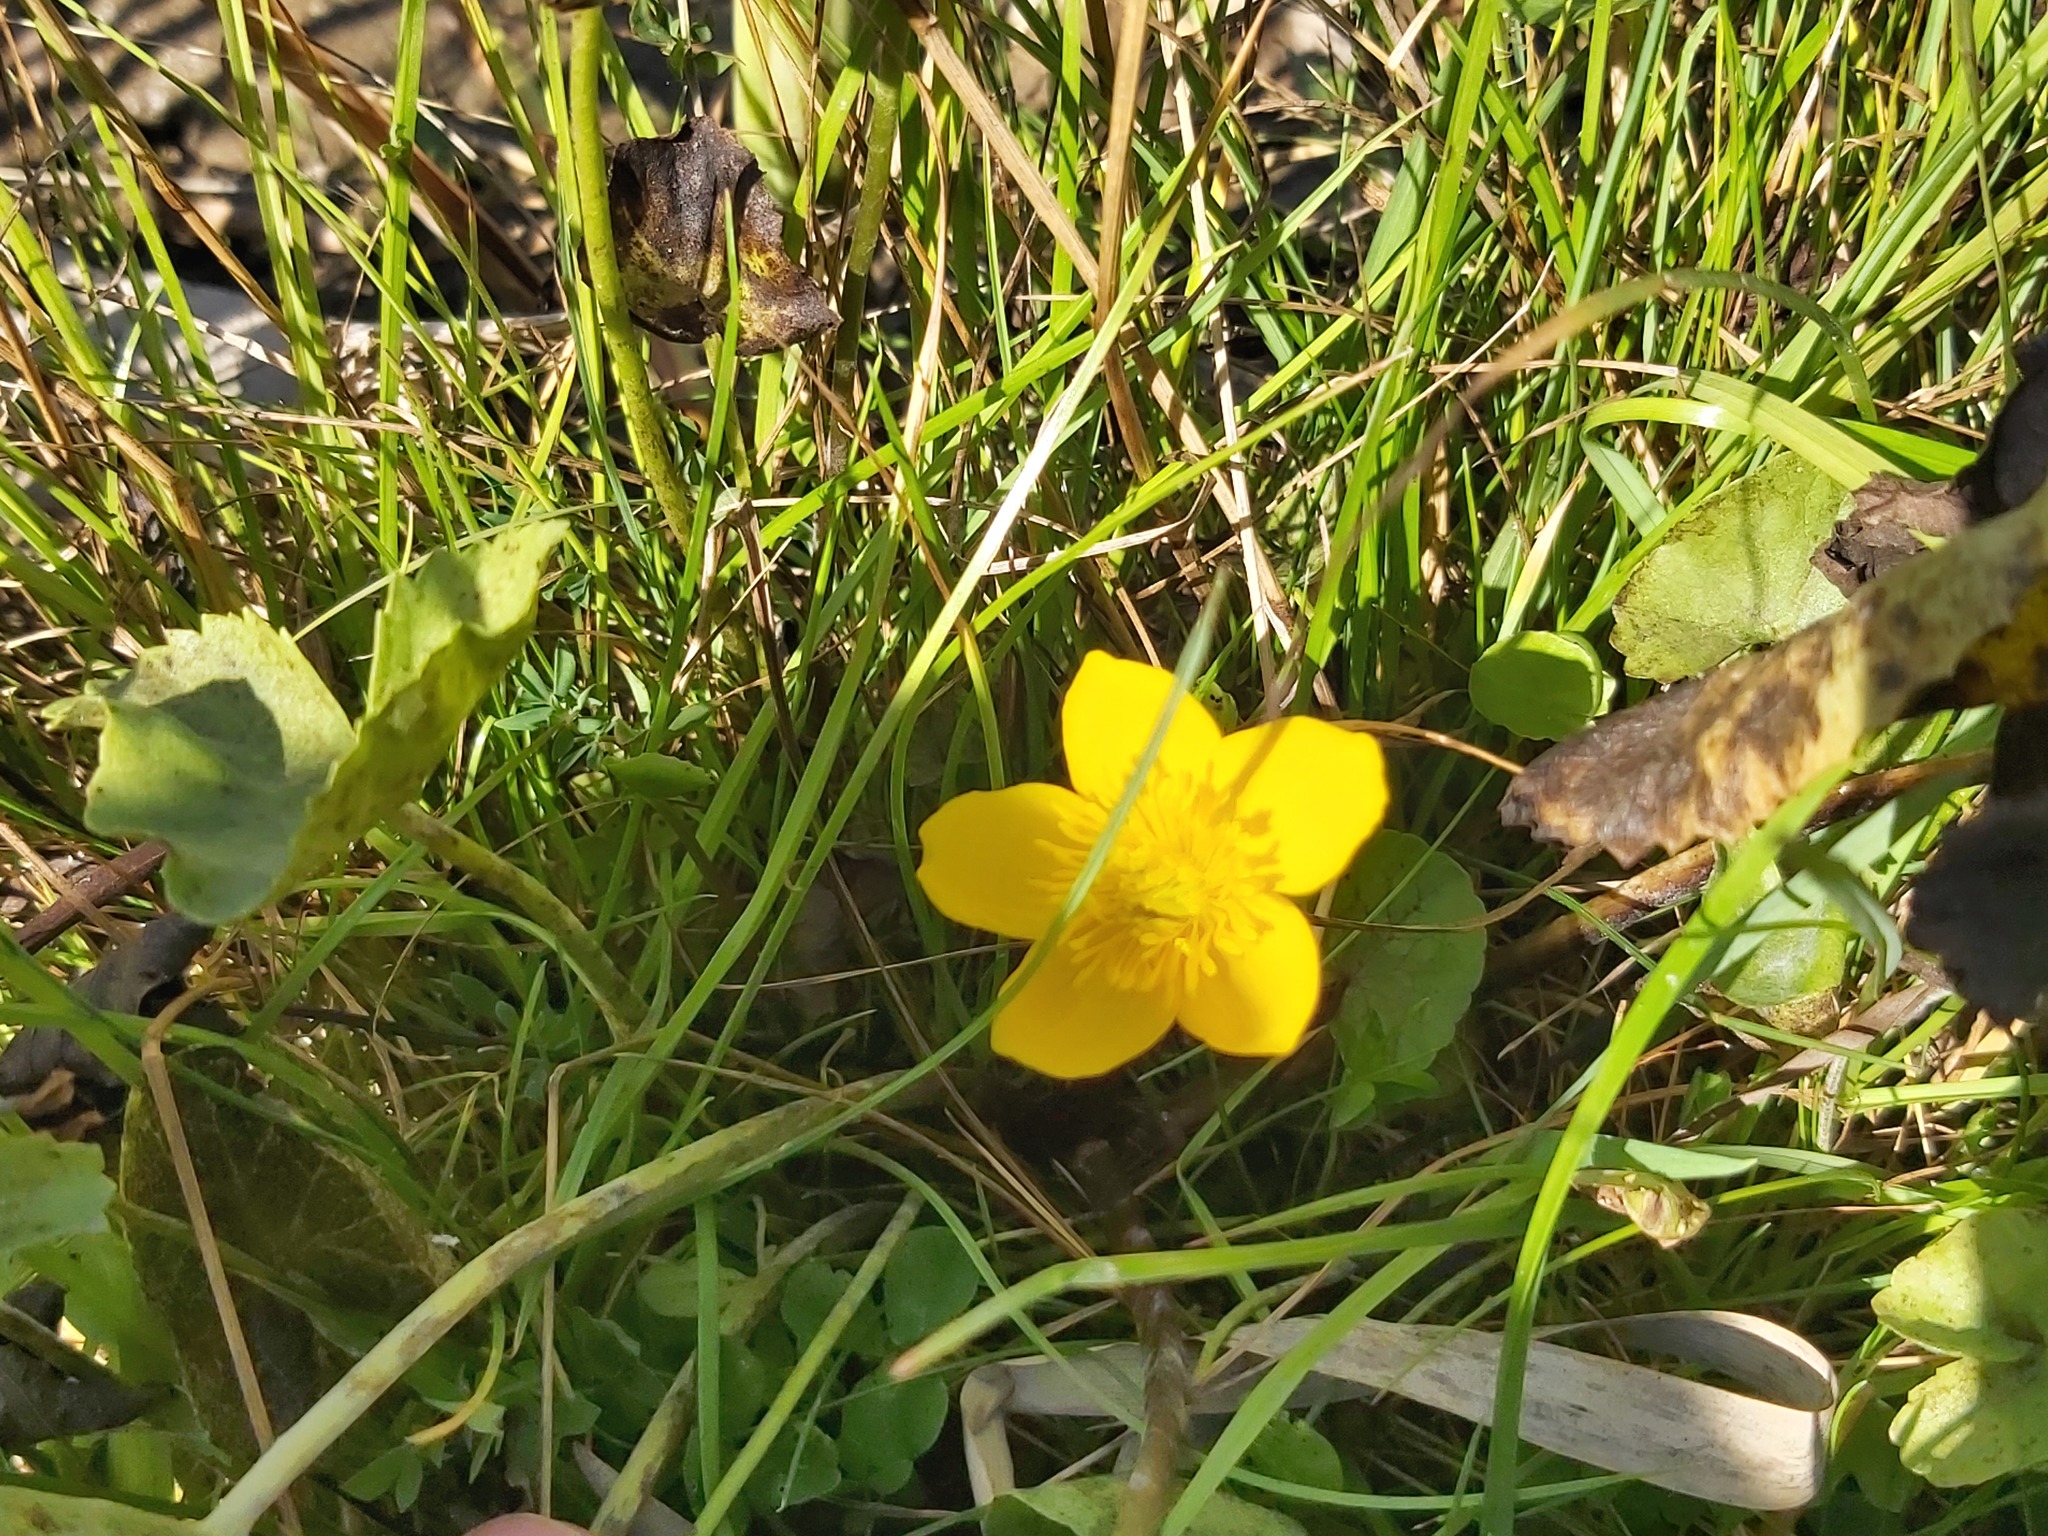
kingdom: Plantae
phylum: Tracheophyta
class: Magnoliopsida
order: Ranunculales
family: Ranunculaceae
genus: Caltha
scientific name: Caltha palustris
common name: Marsh marigold
